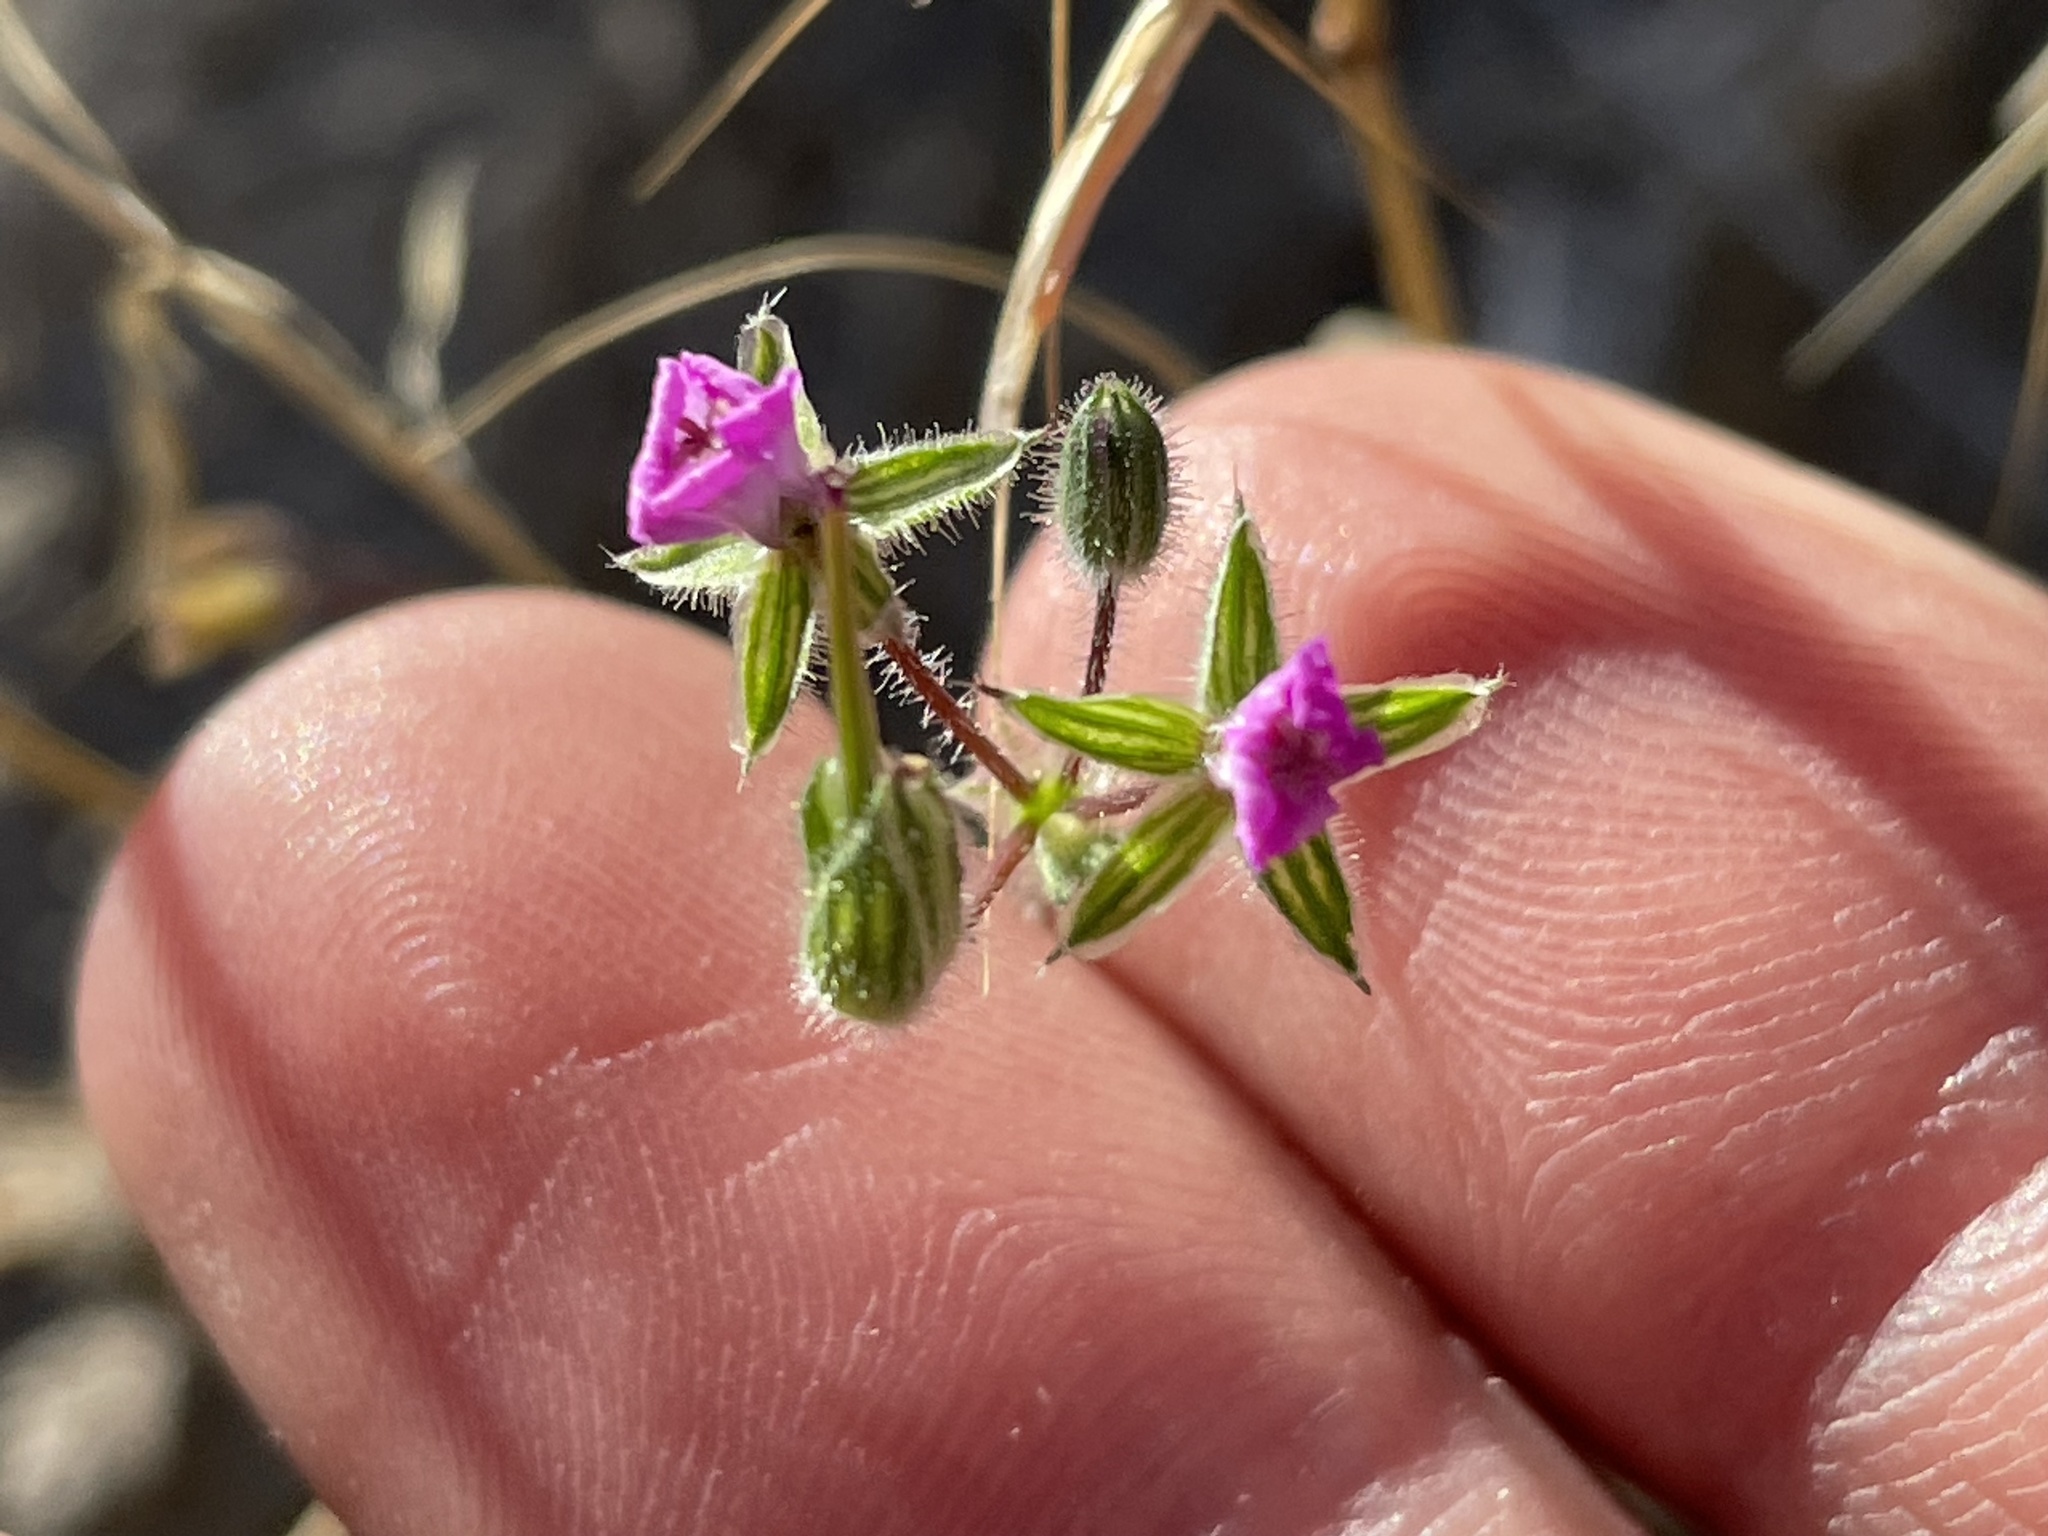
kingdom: Plantae
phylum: Tracheophyta
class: Magnoliopsida
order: Geraniales
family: Geraniaceae
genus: Erodium
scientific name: Erodium cicutarium
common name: Common stork's-bill
